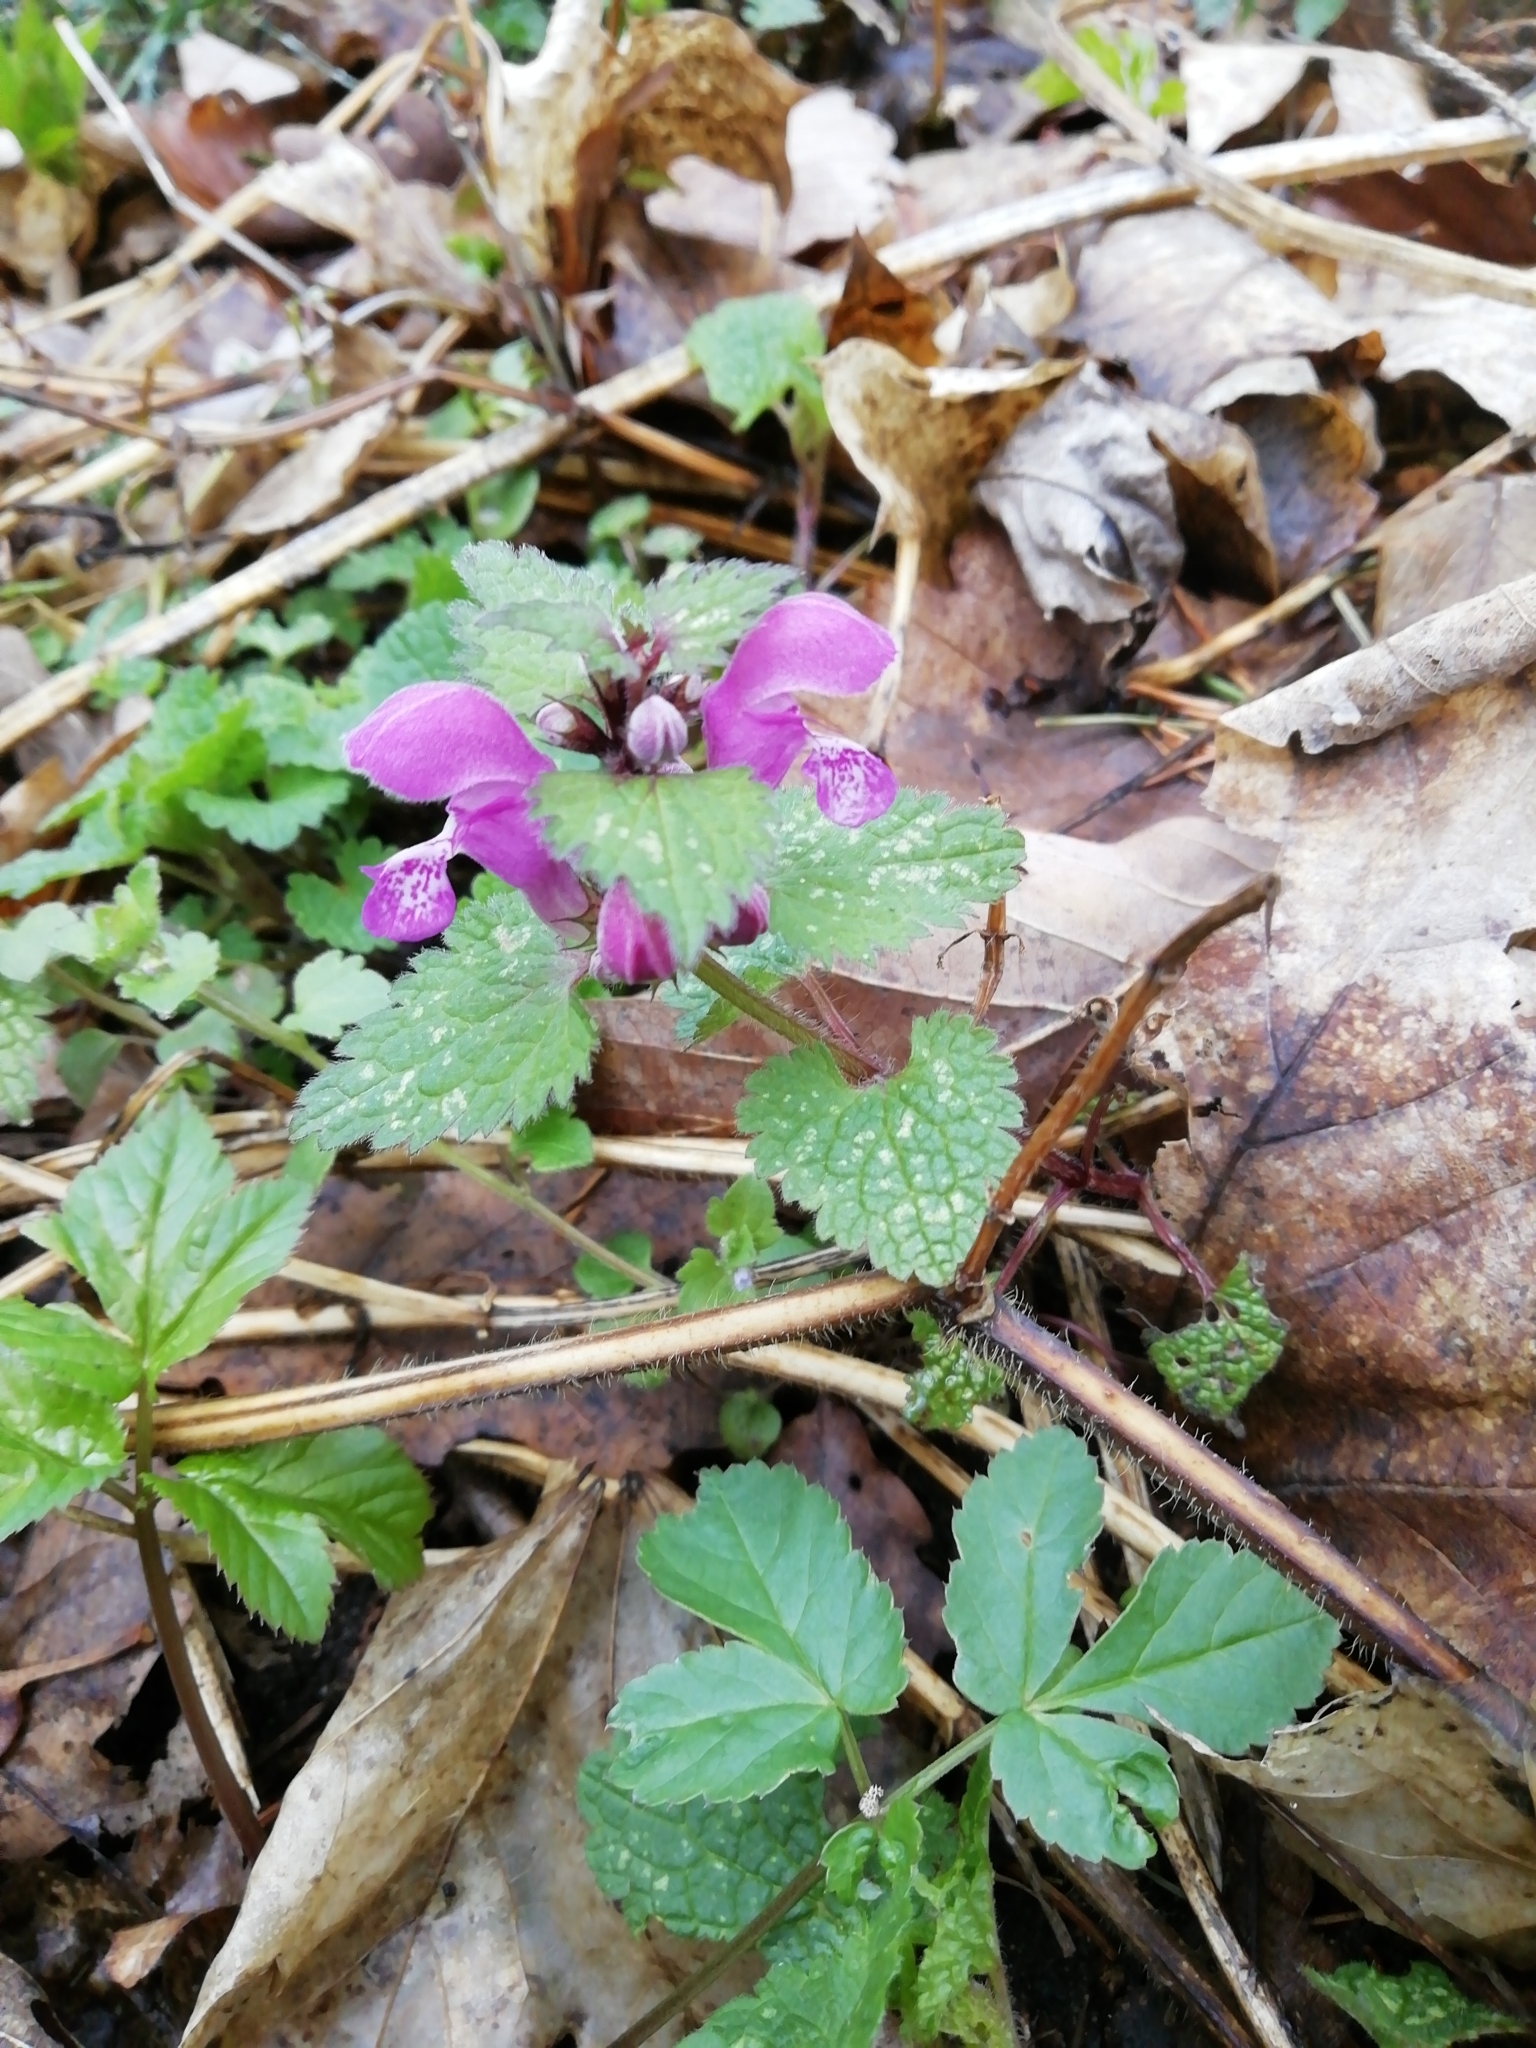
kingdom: Plantae
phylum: Tracheophyta
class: Magnoliopsida
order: Lamiales
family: Lamiaceae
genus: Lamium
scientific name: Lamium maculatum
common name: Spotted dead-nettle
